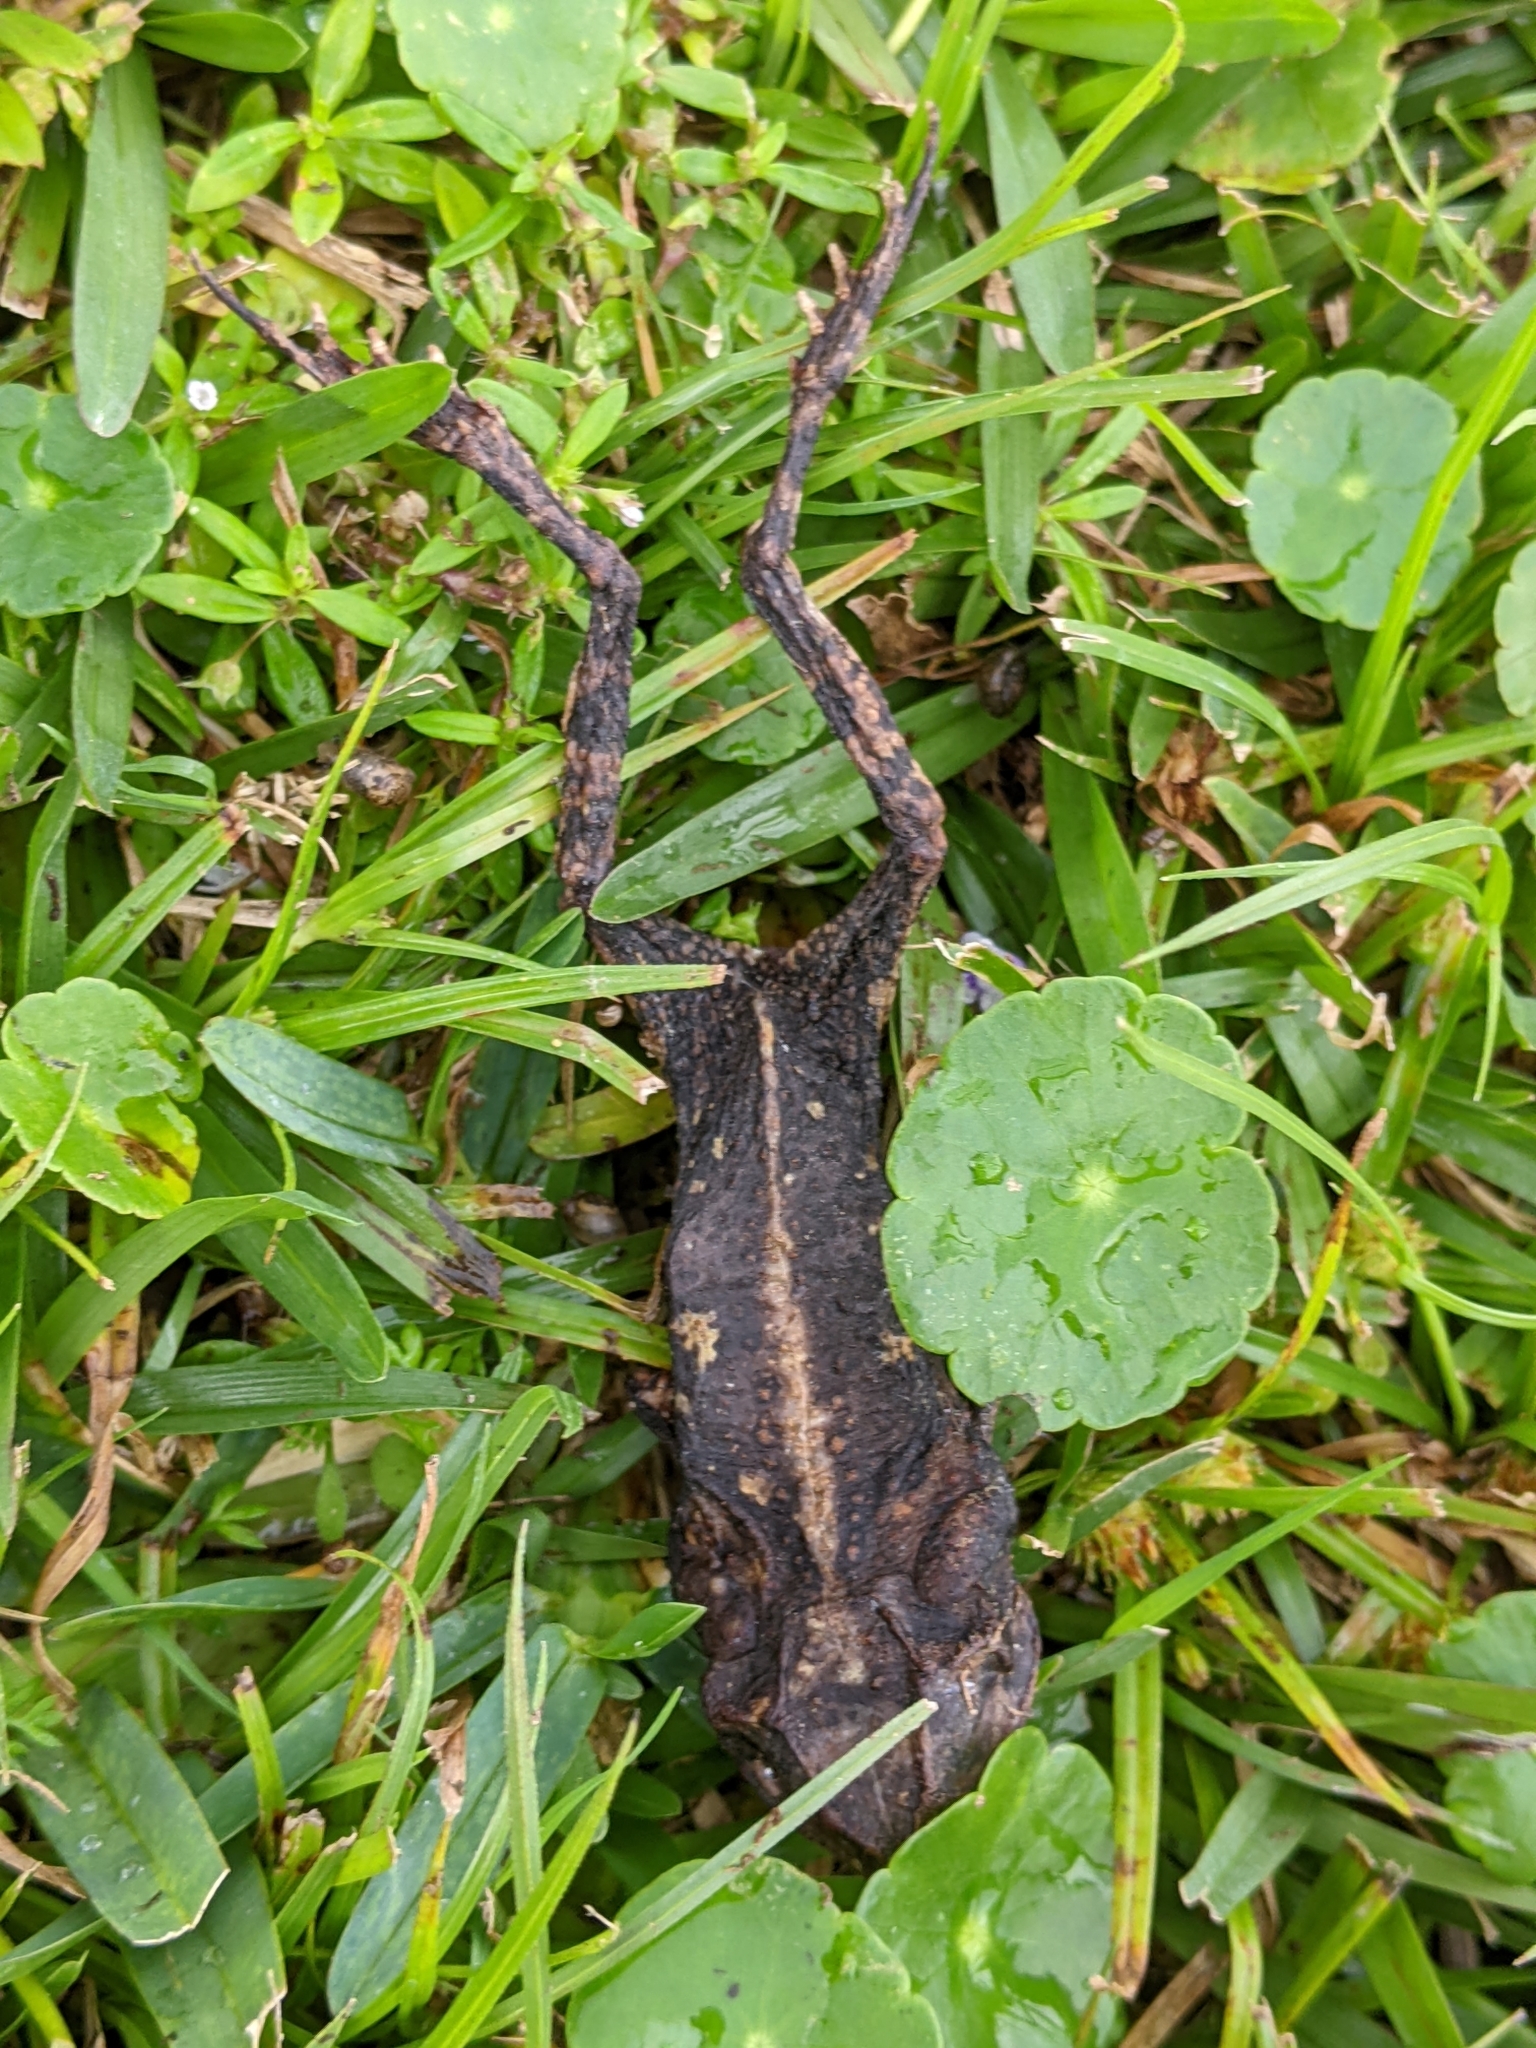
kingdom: Animalia
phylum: Chordata
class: Amphibia
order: Anura
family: Bufonidae
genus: Incilius
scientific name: Incilius nebulifer
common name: Gulf coast toad
